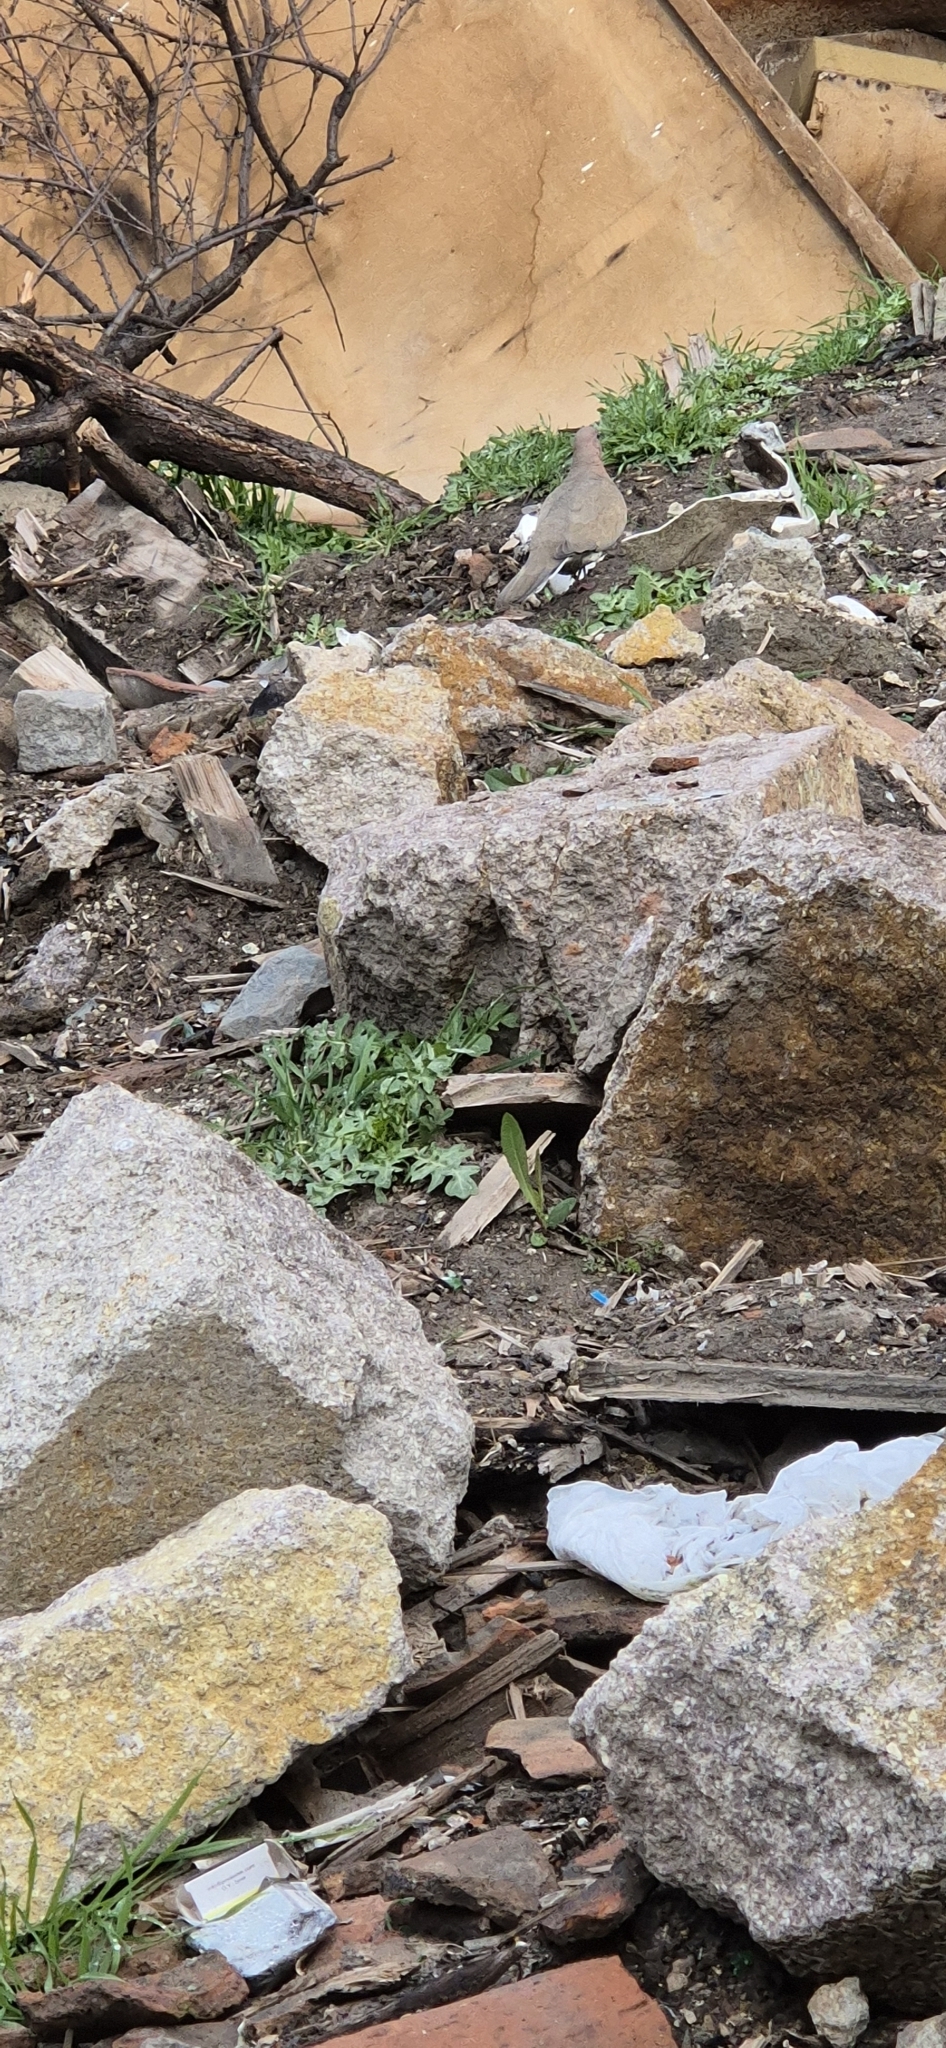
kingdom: Animalia
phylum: Chordata
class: Aves
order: Columbiformes
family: Columbidae
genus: Spilopelia
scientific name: Spilopelia senegalensis
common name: Laughing dove
